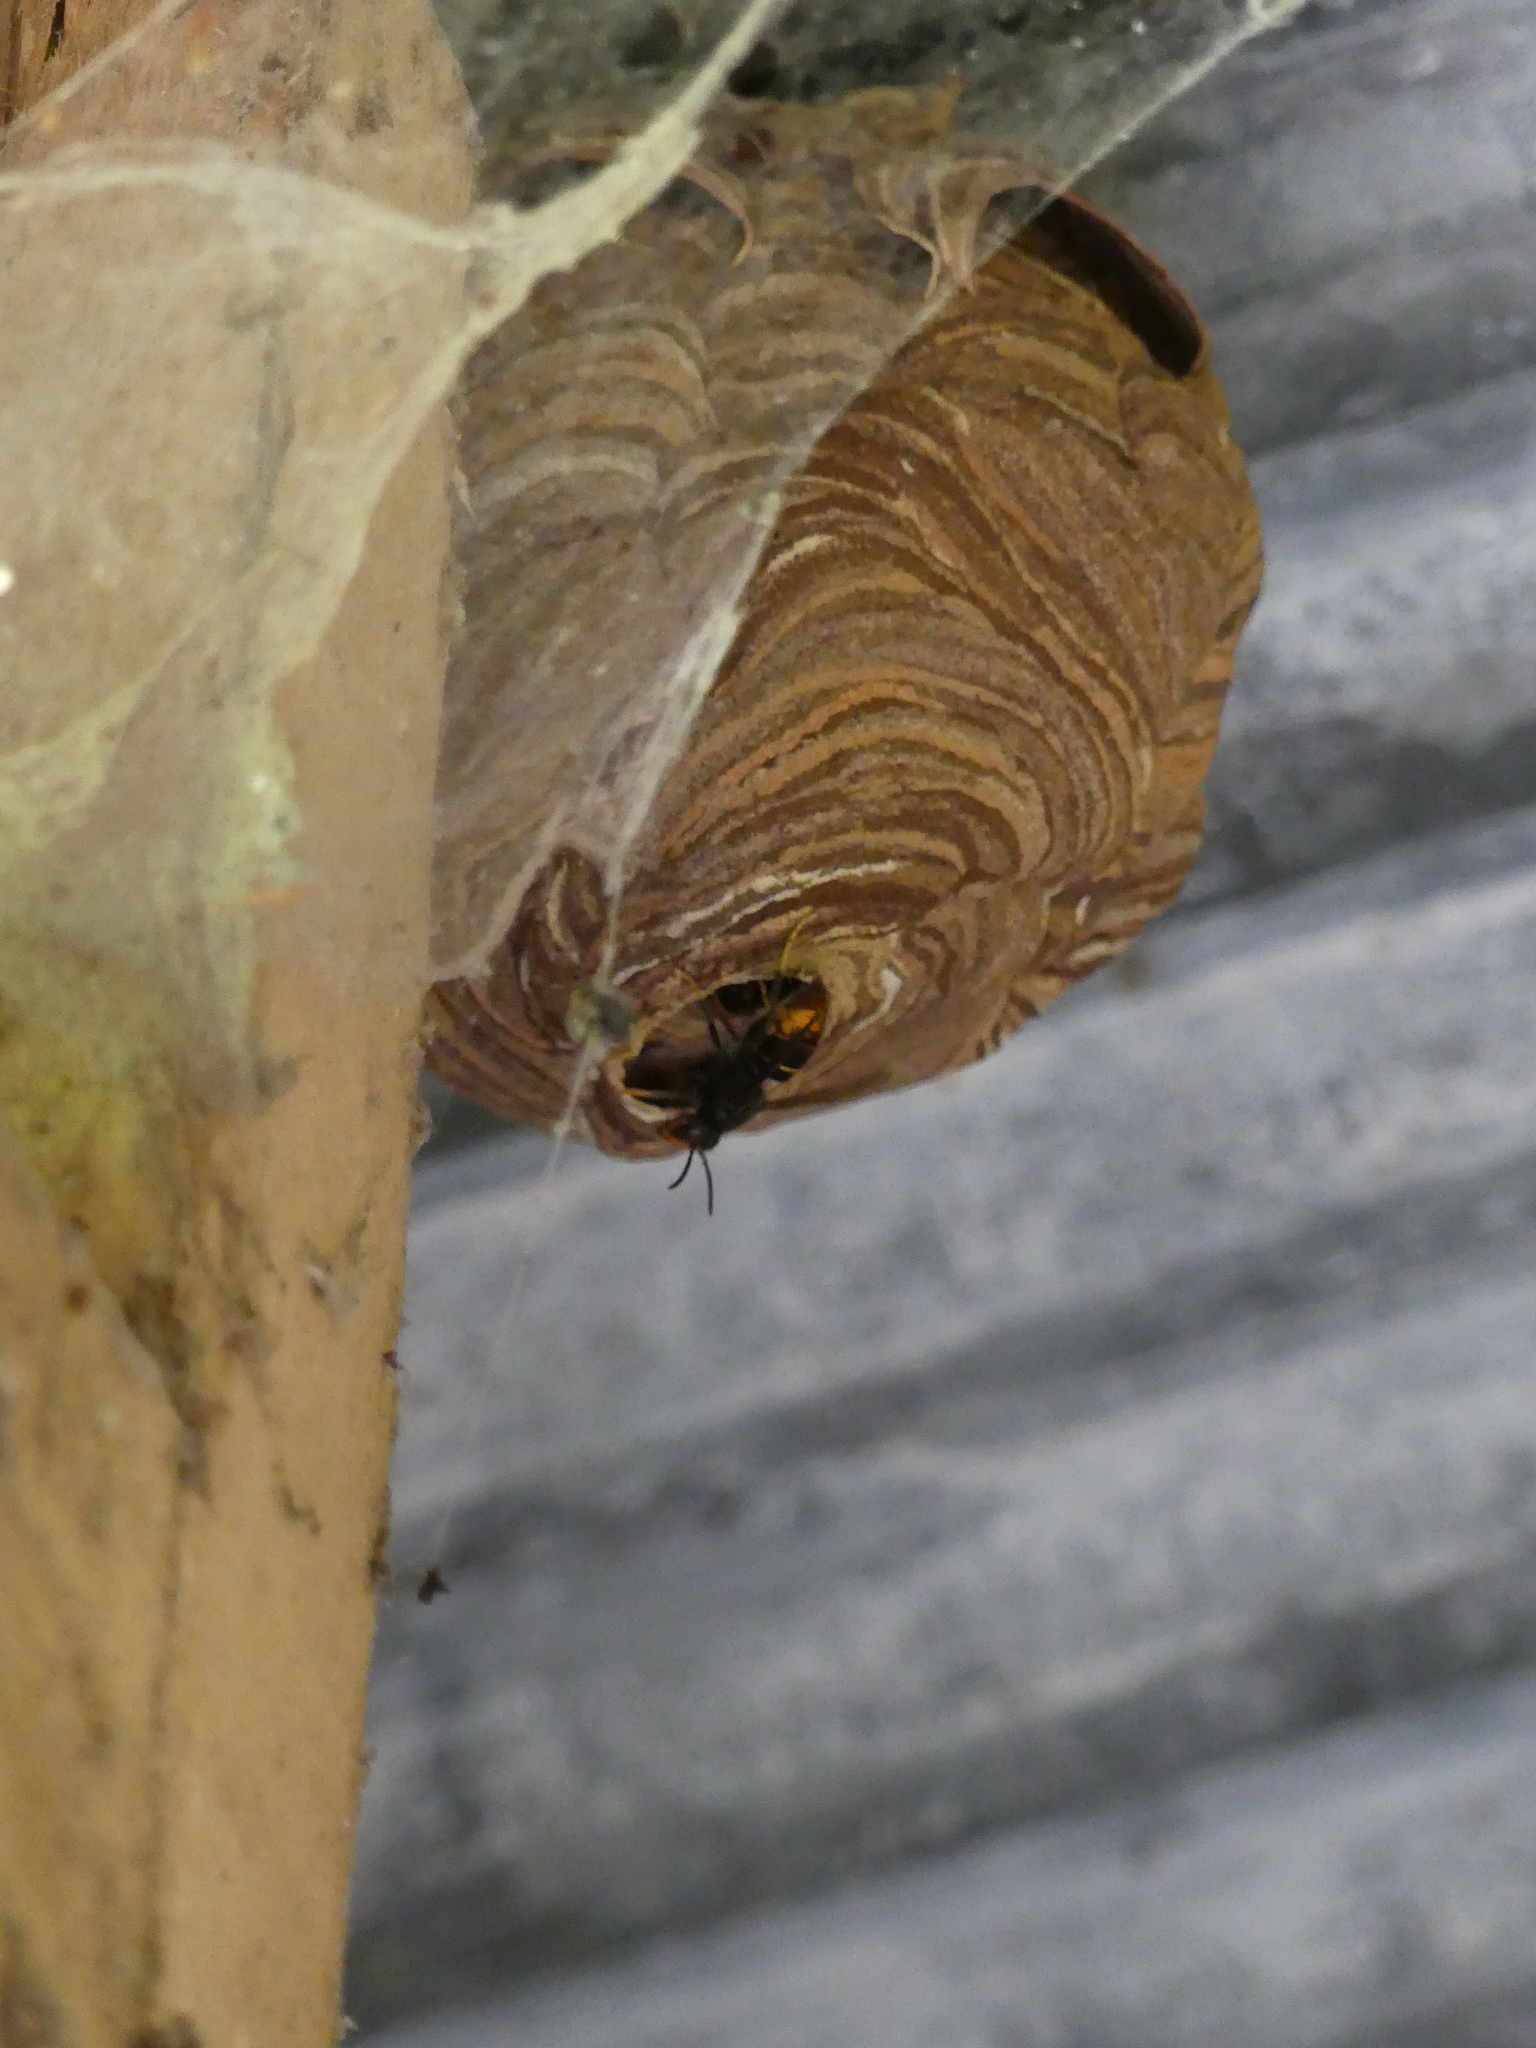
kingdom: Animalia
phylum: Arthropoda
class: Insecta
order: Hymenoptera
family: Vespidae
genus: Vespa
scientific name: Vespa velutina
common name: Asian hornet
